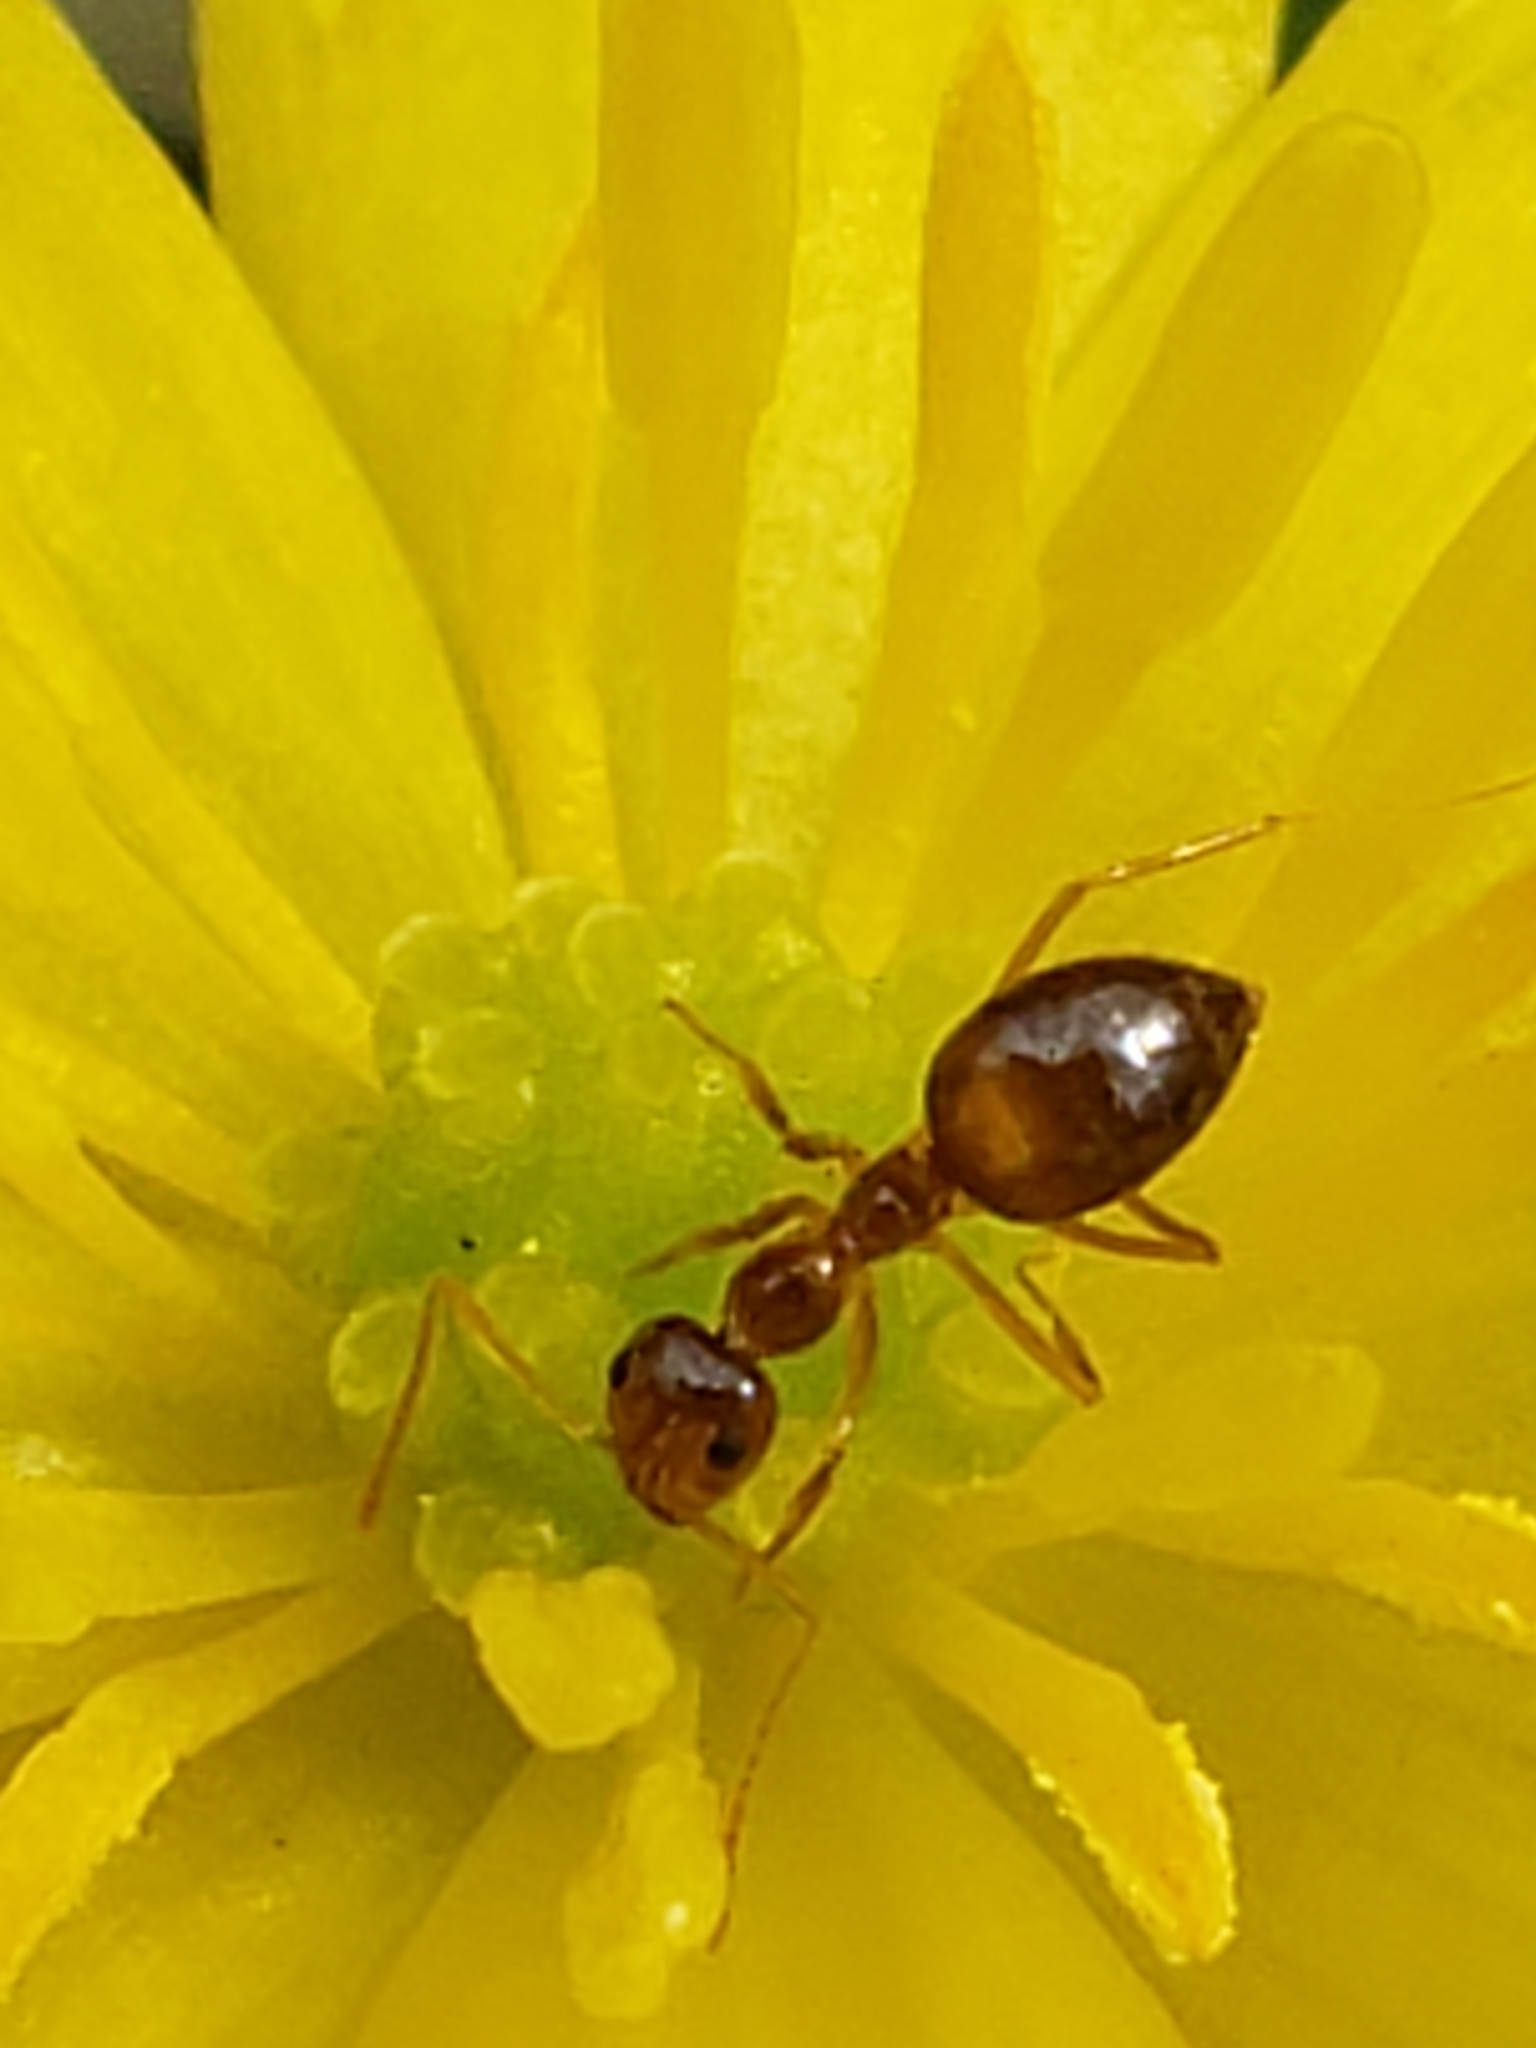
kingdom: Animalia
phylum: Arthropoda
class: Insecta
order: Hymenoptera
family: Formicidae
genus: Prenolepis
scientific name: Prenolepis imparis
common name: Small honey ant
